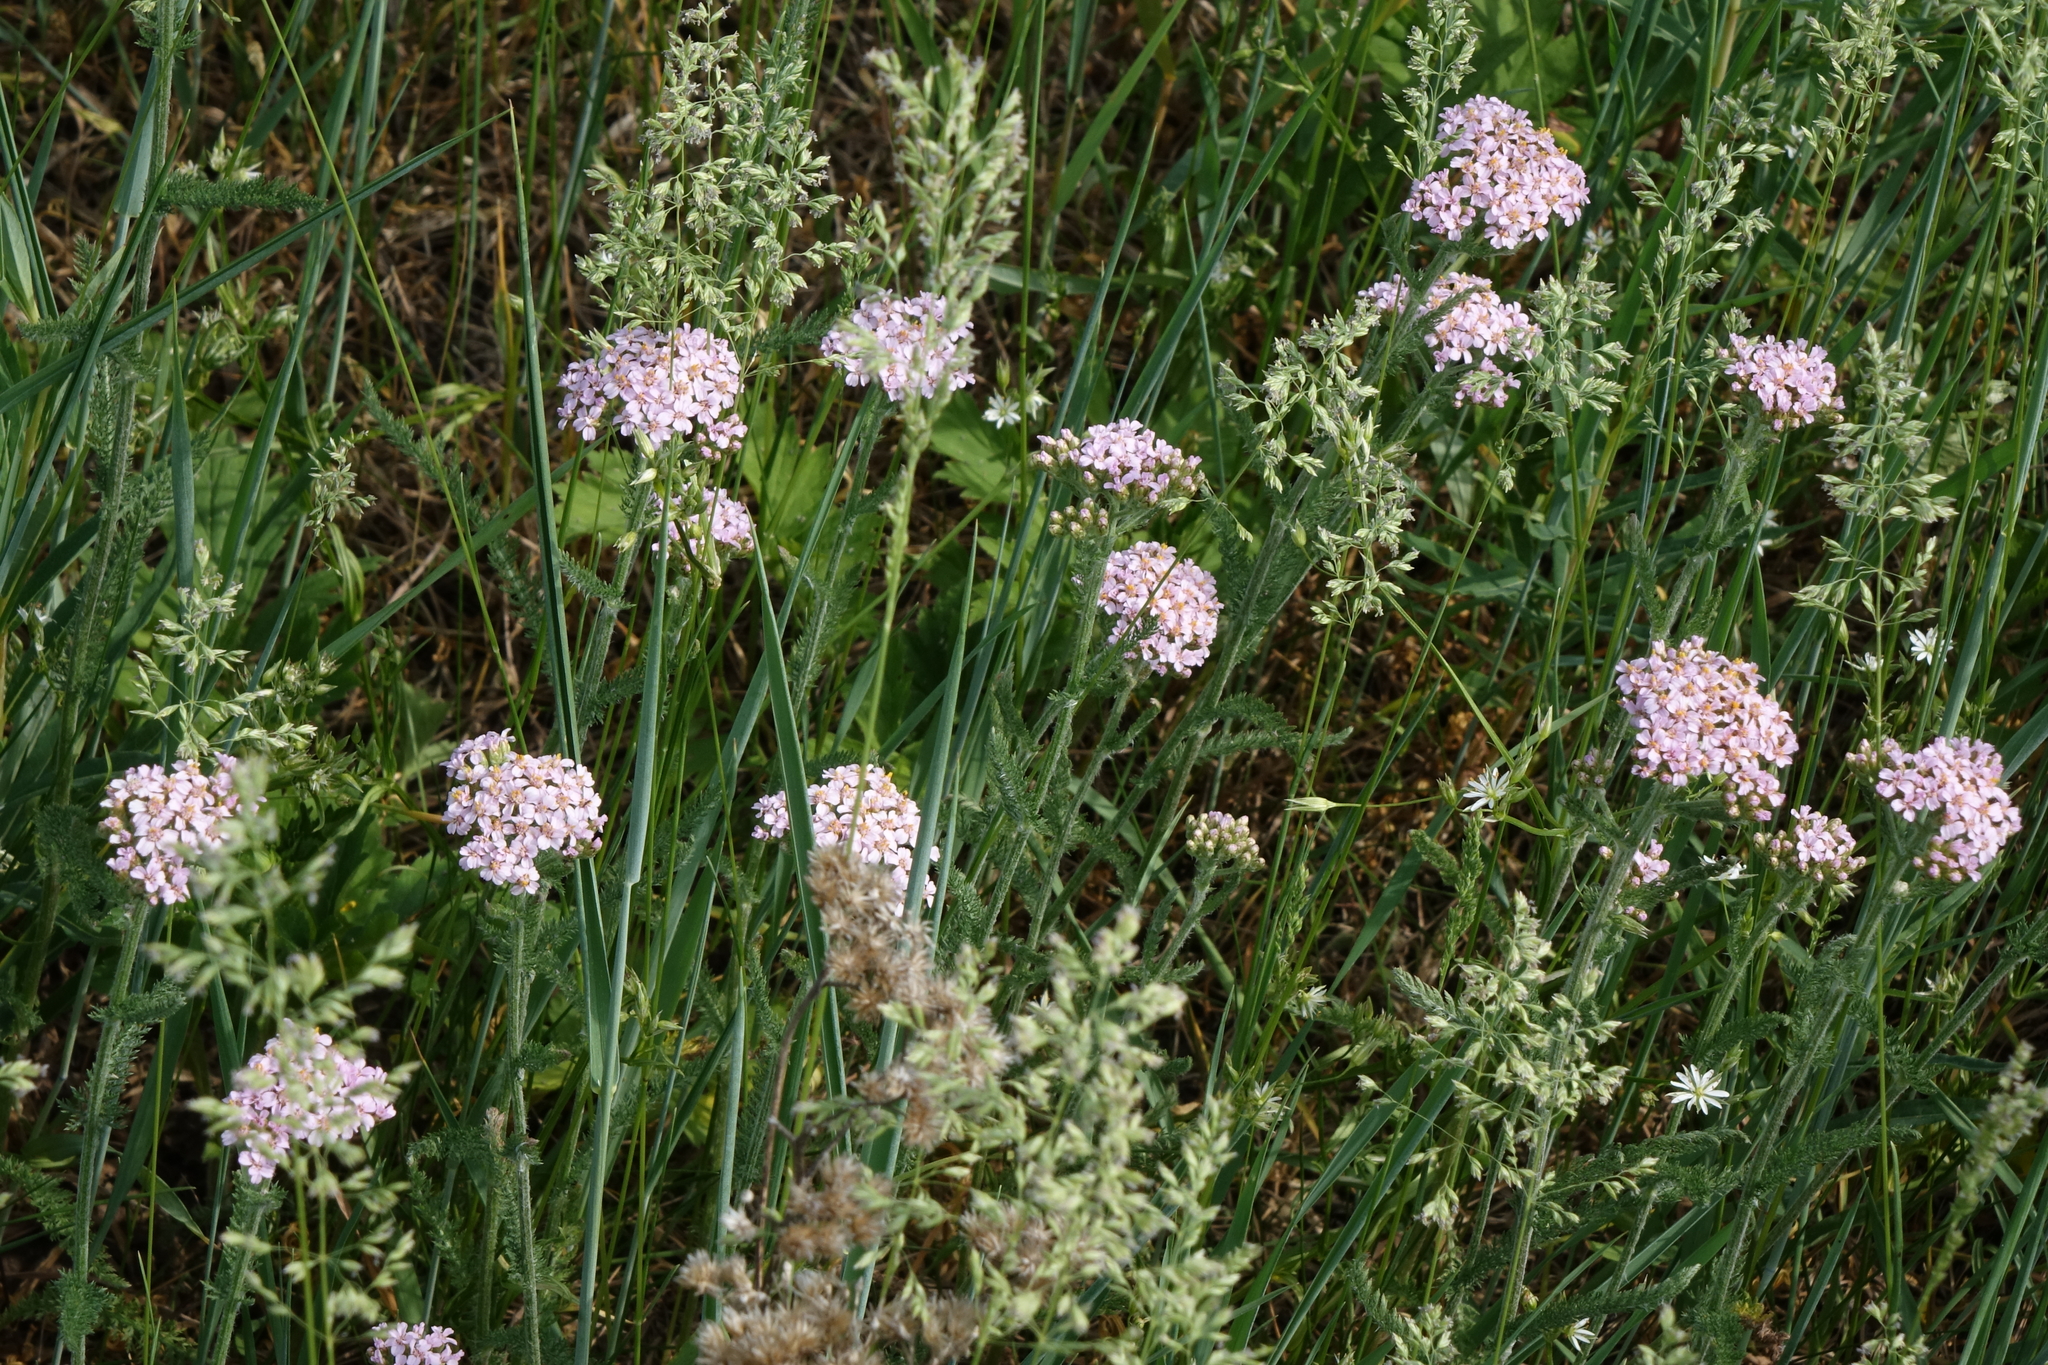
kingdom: Plantae
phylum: Tracheophyta
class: Magnoliopsida
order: Asterales
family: Asteraceae
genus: Achillea
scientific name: Achillea millefolium
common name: Yarrow
